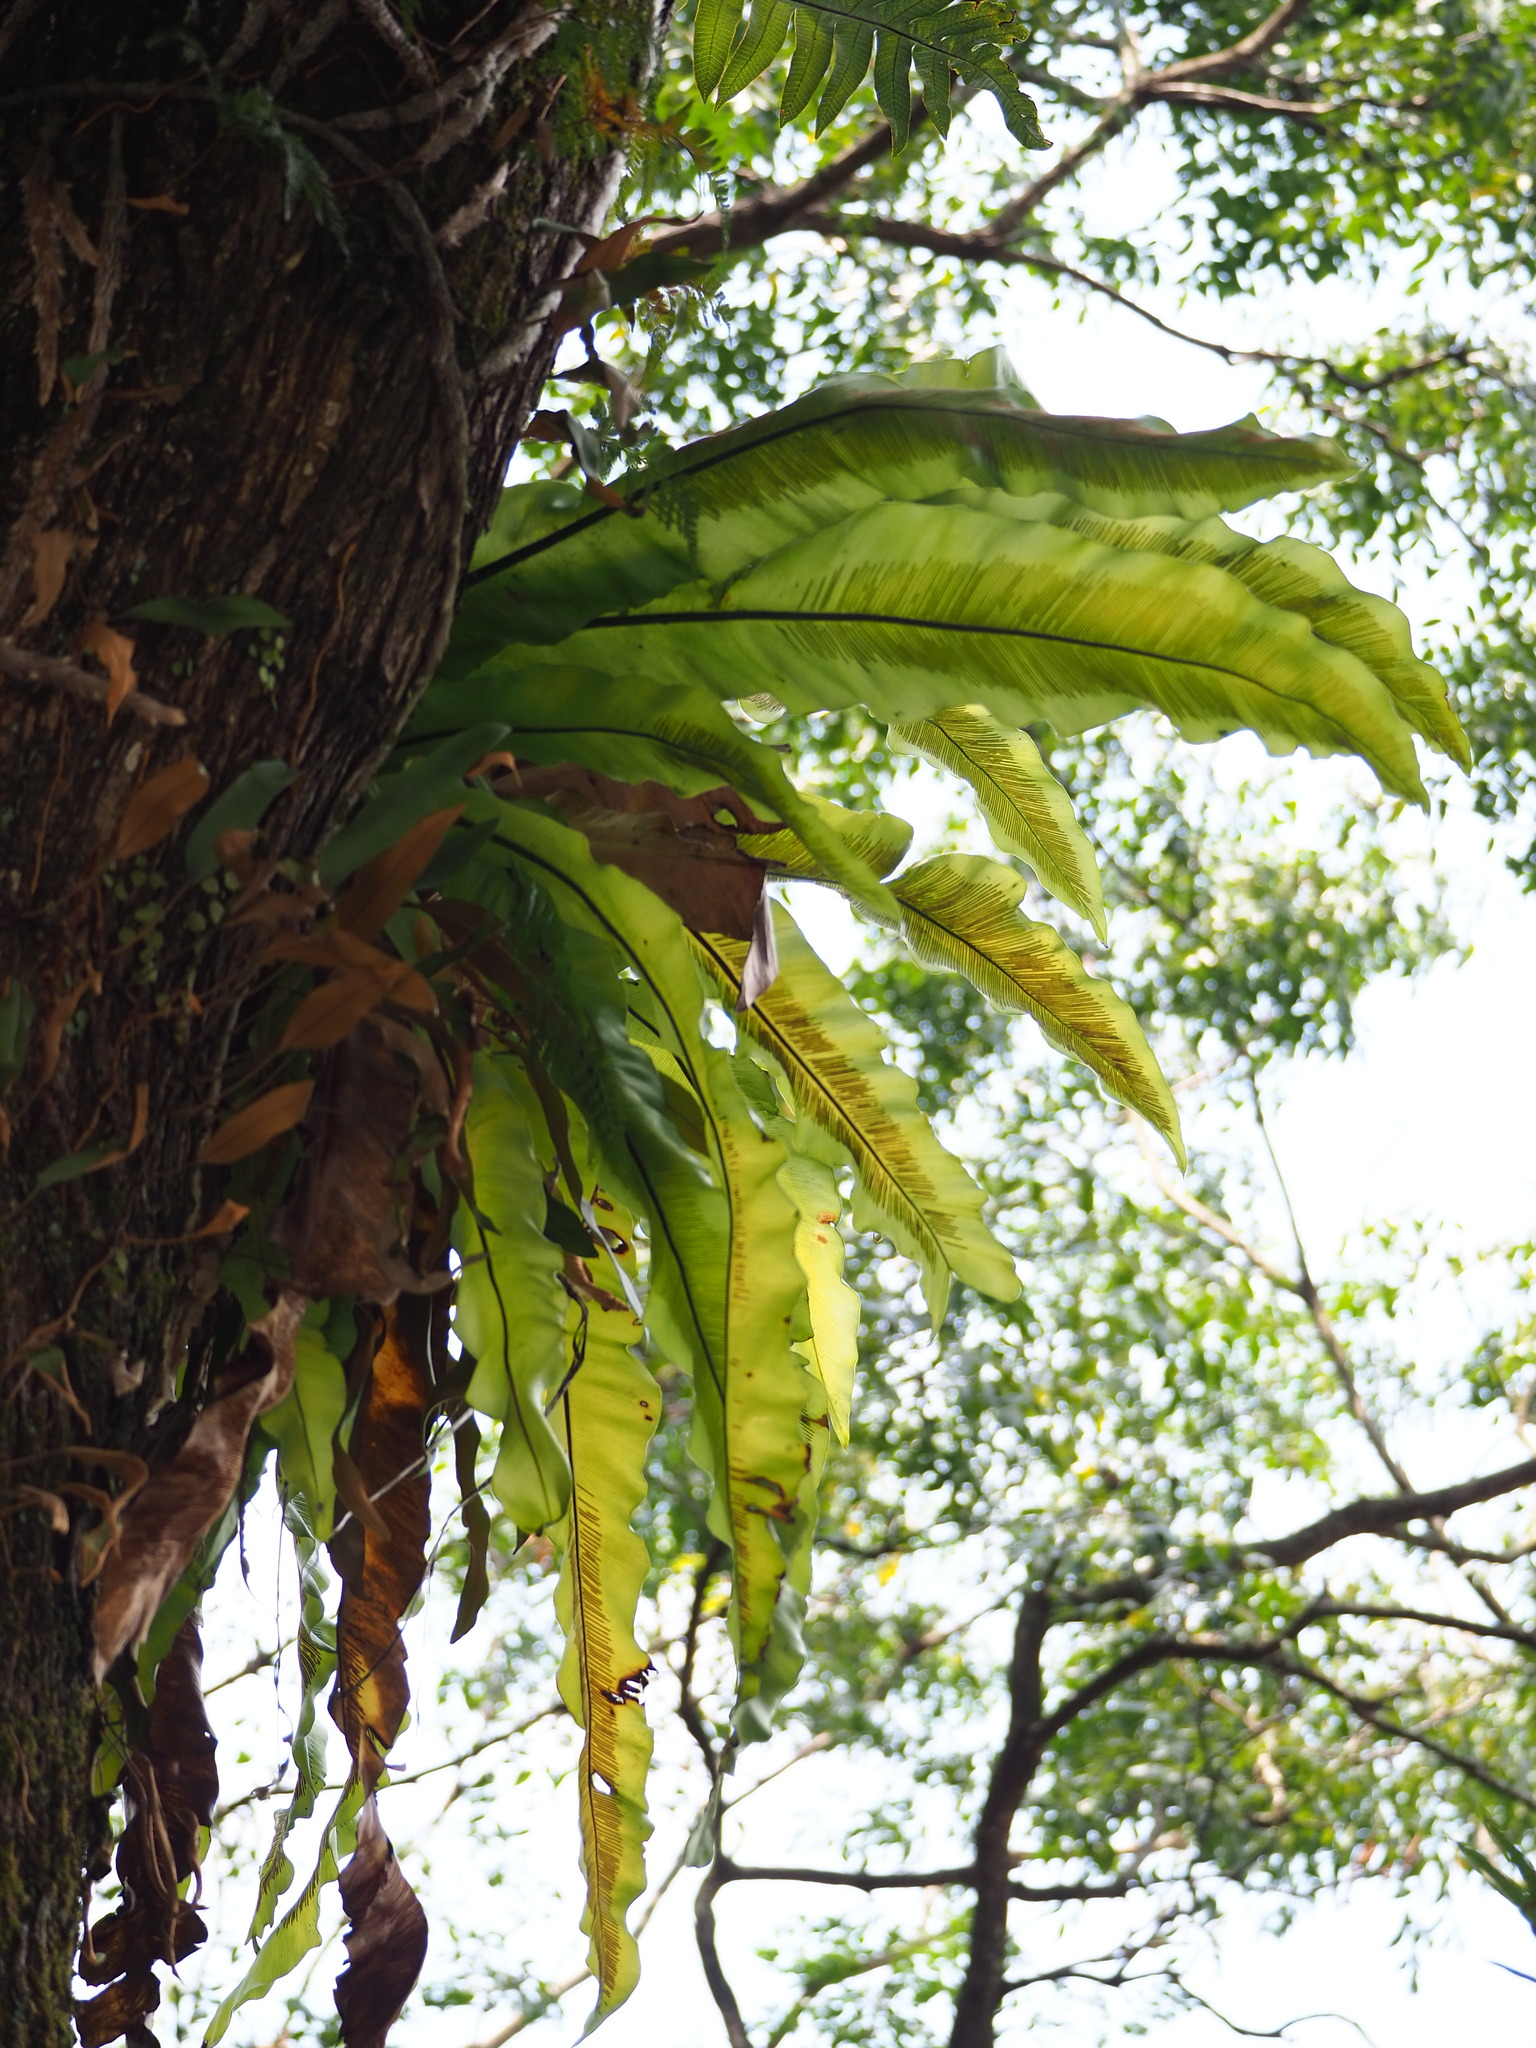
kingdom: Plantae
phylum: Tracheophyta
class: Polypodiopsida
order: Polypodiales
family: Aspleniaceae
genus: Asplenium
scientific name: Asplenium nidus
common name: Bird's-nest fern
